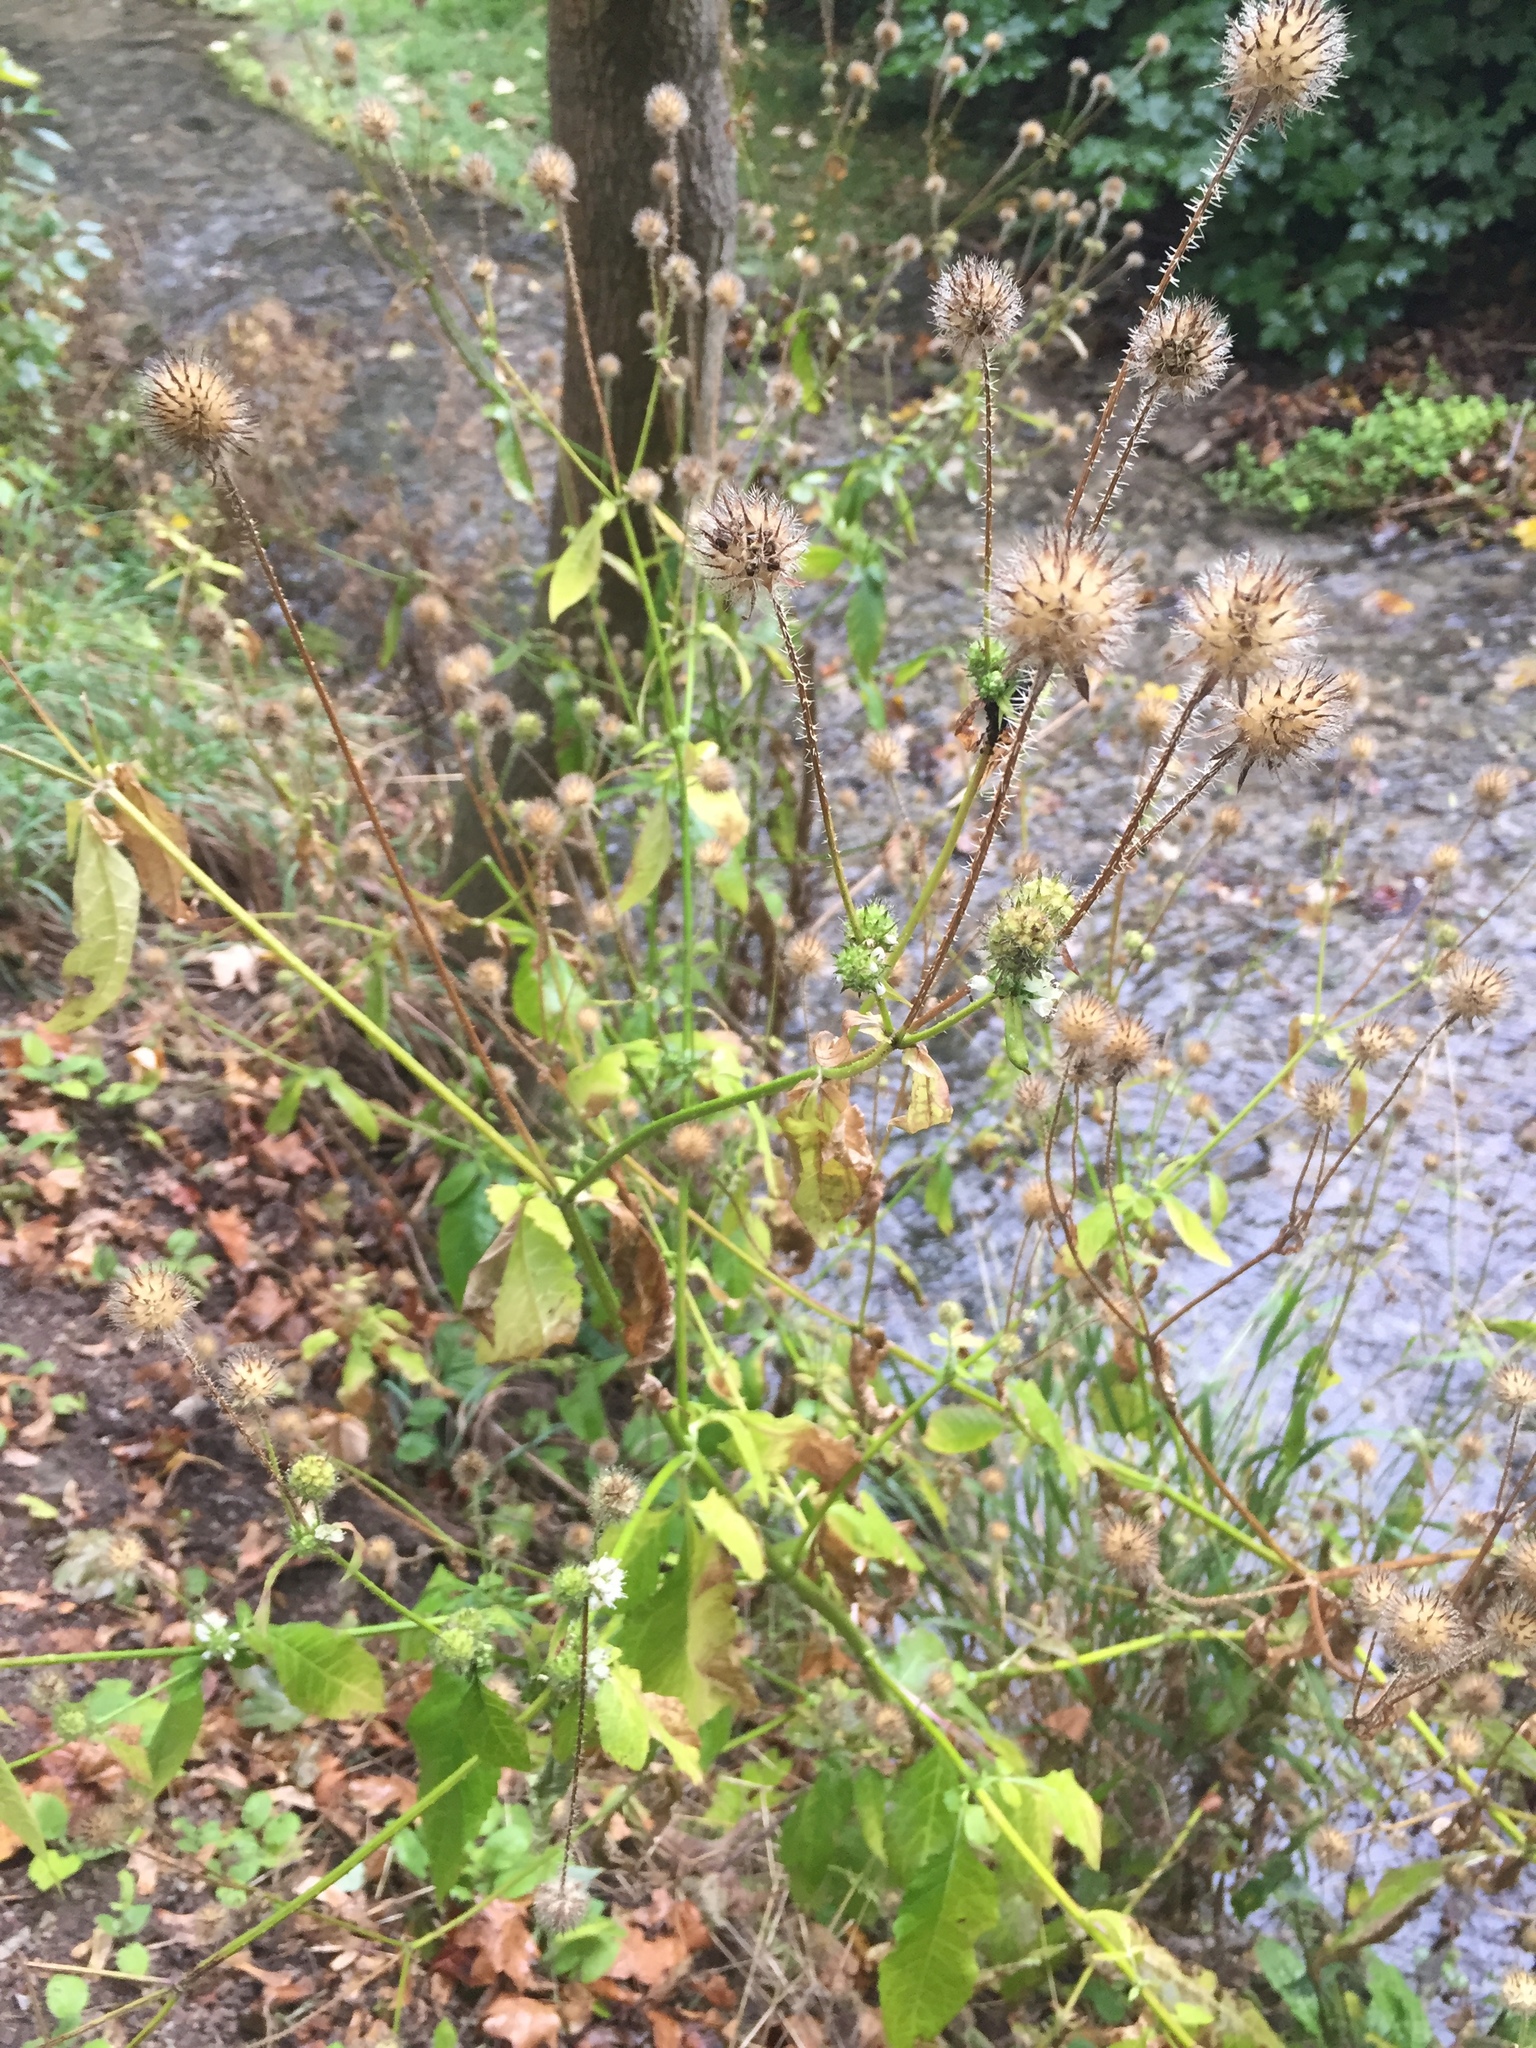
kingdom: Plantae
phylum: Tracheophyta
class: Magnoliopsida
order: Dipsacales
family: Caprifoliaceae
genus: Dipsacus
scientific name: Dipsacus pilosus
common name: Small teasel
